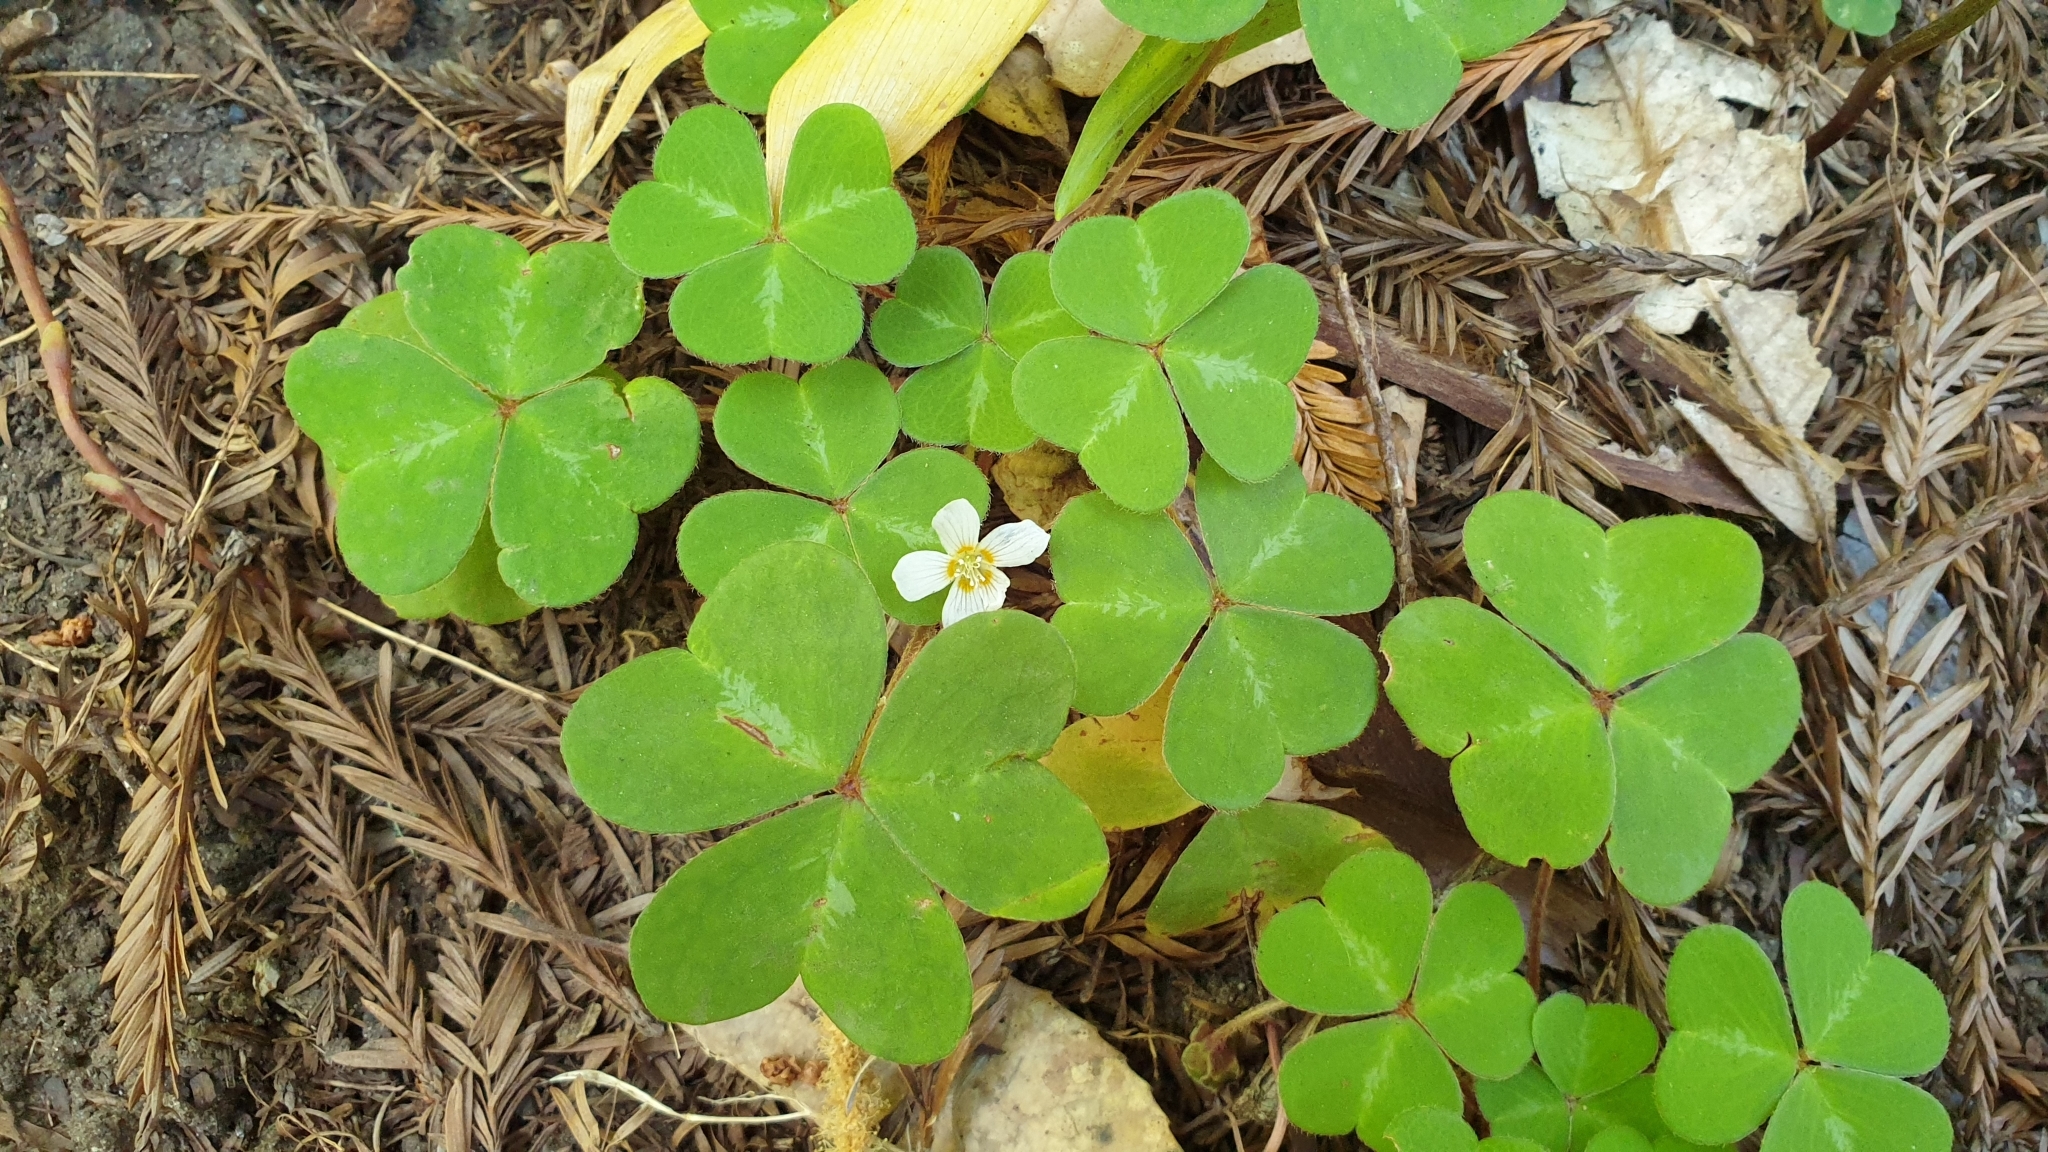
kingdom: Plantae
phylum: Tracheophyta
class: Magnoliopsida
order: Oxalidales
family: Oxalidaceae
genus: Oxalis
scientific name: Oxalis oregana
